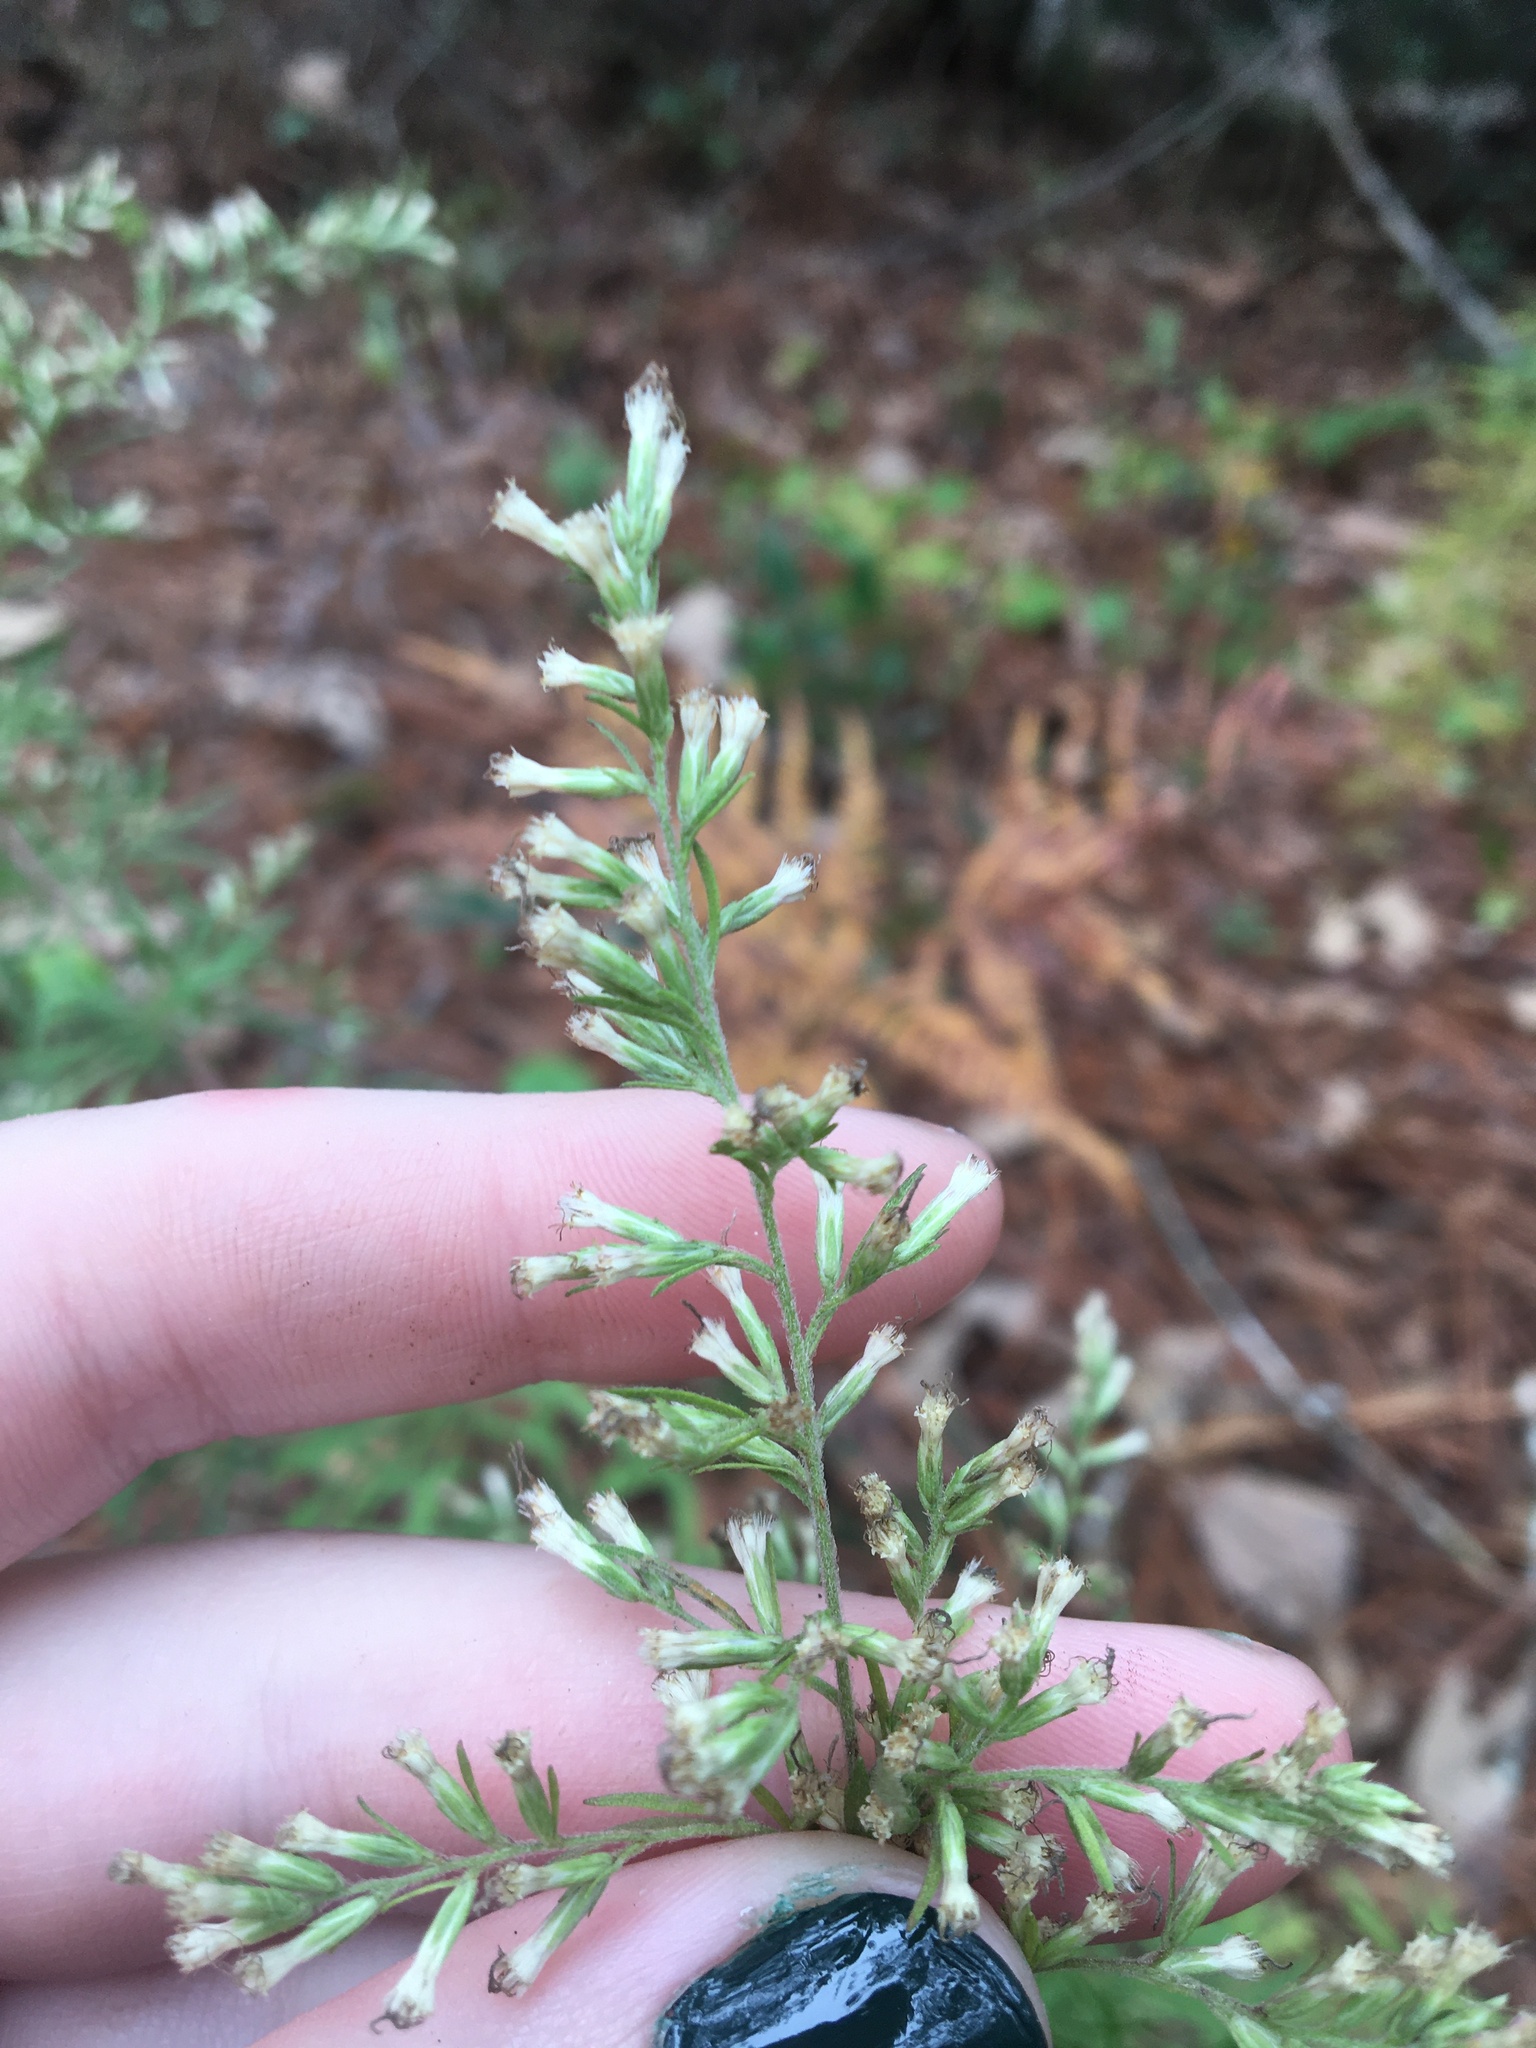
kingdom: Plantae
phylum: Tracheophyta
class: Magnoliopsida
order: Asterales
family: Asteraceae
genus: Eupatorium
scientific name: Eupatorium compositifolium
